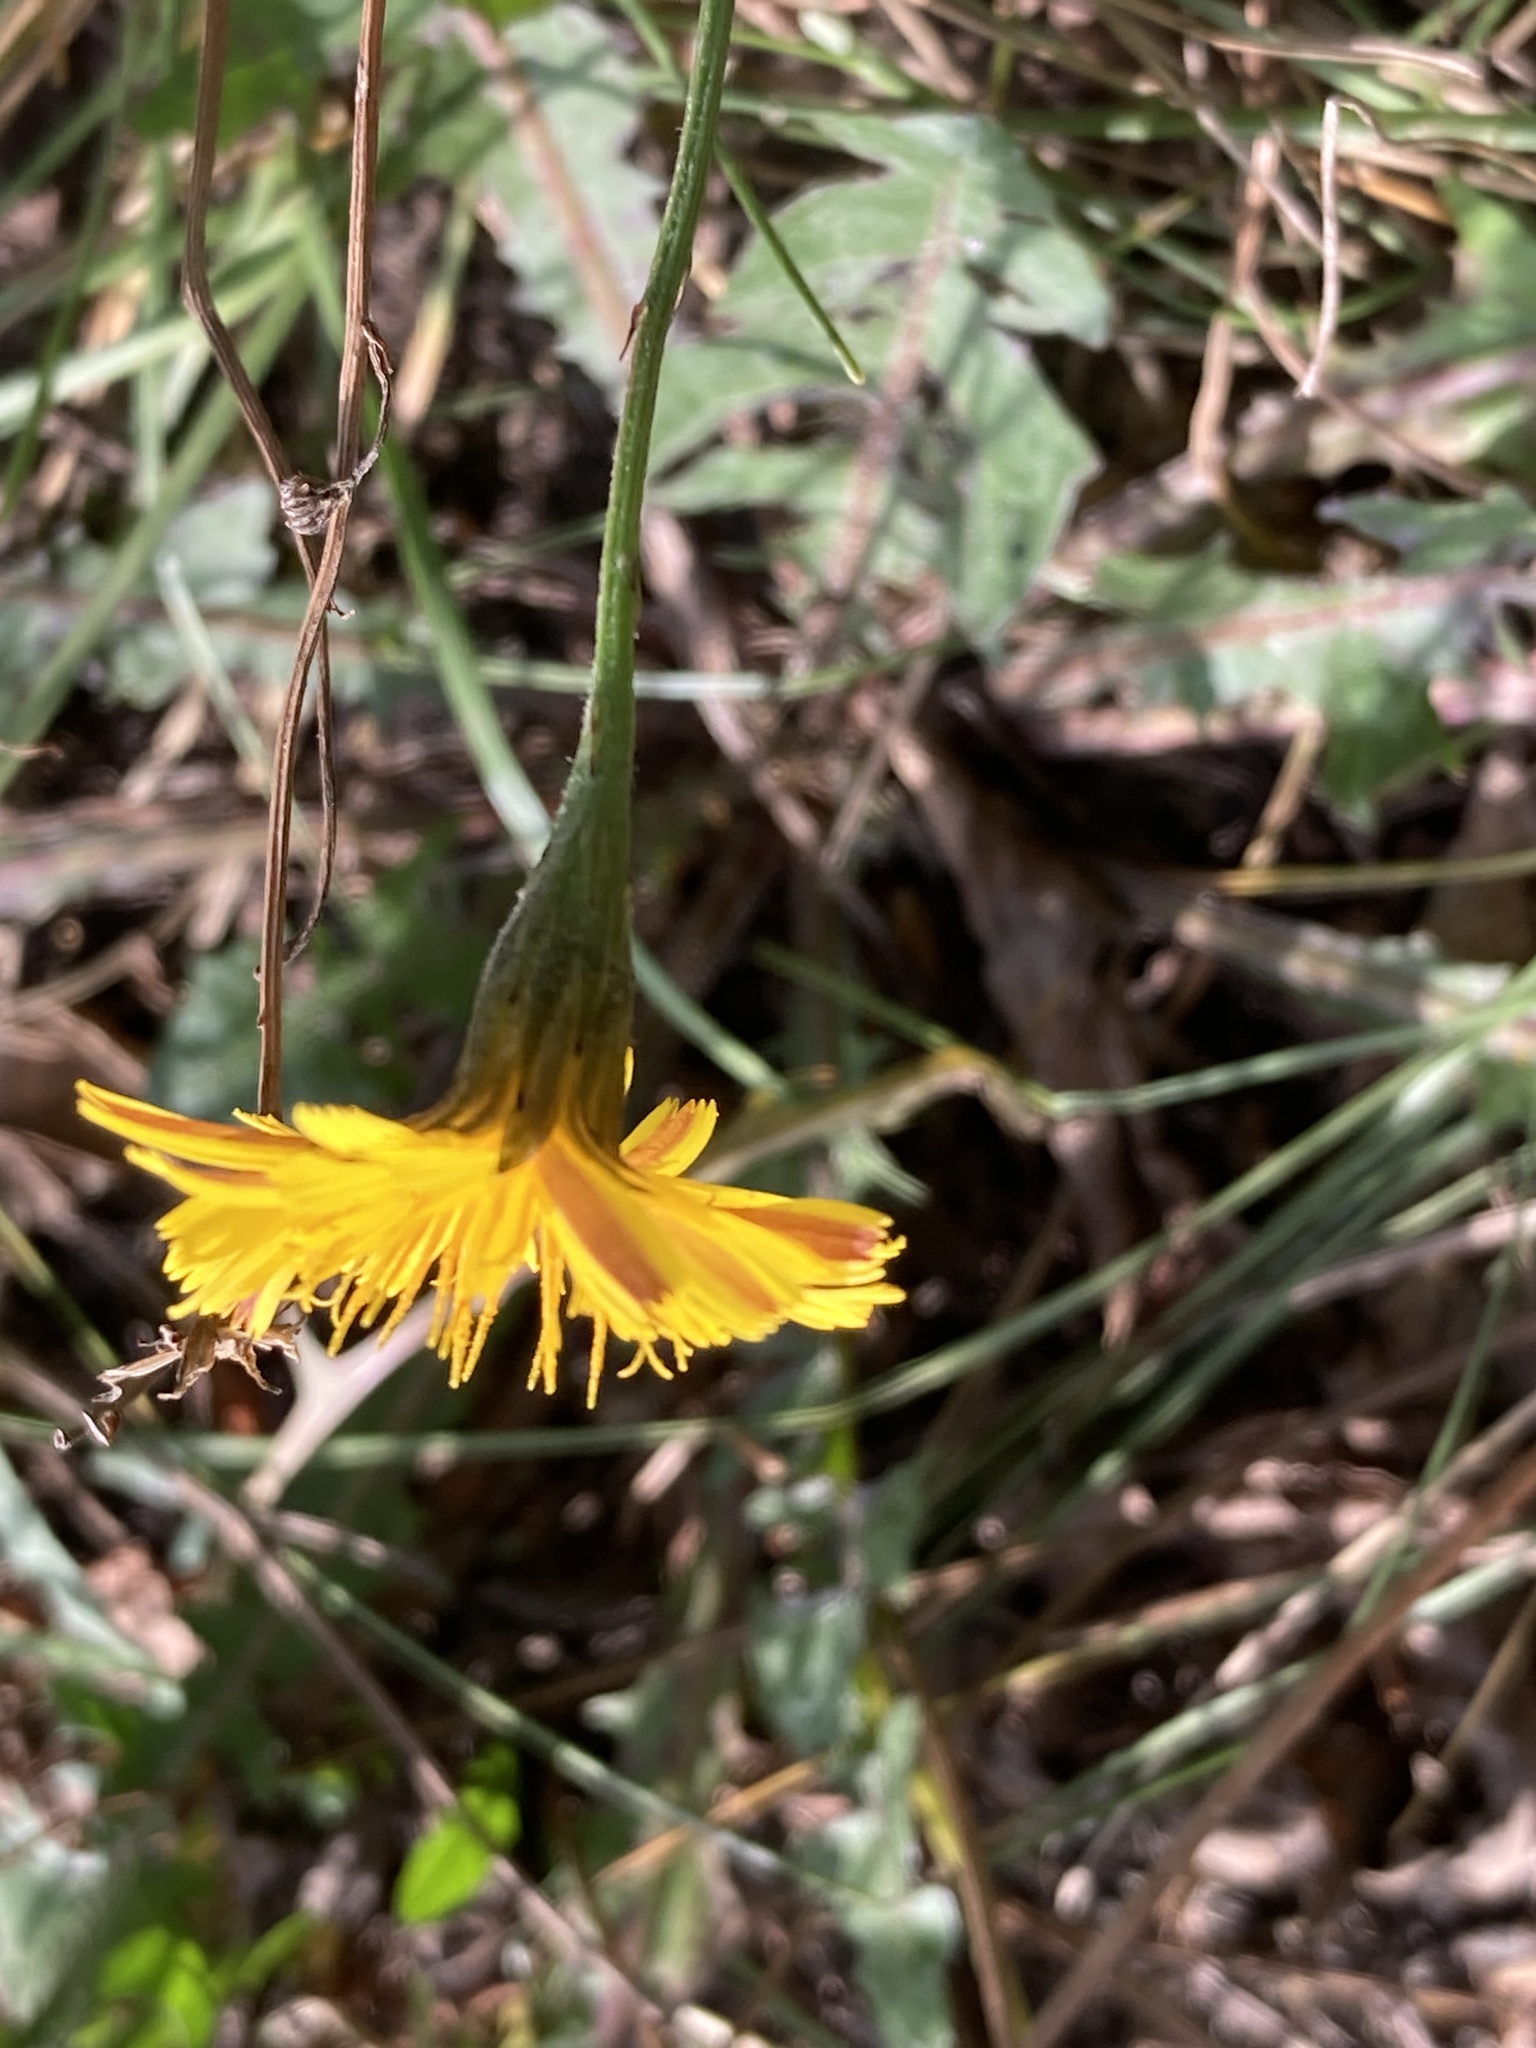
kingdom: Plantae
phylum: Tracheophyta
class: Magnoliopsida
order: Asterales
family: Asteraceae
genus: Scorzoneroides
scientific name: Scorzoneroides autumnalis
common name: Autumn hawkbit
